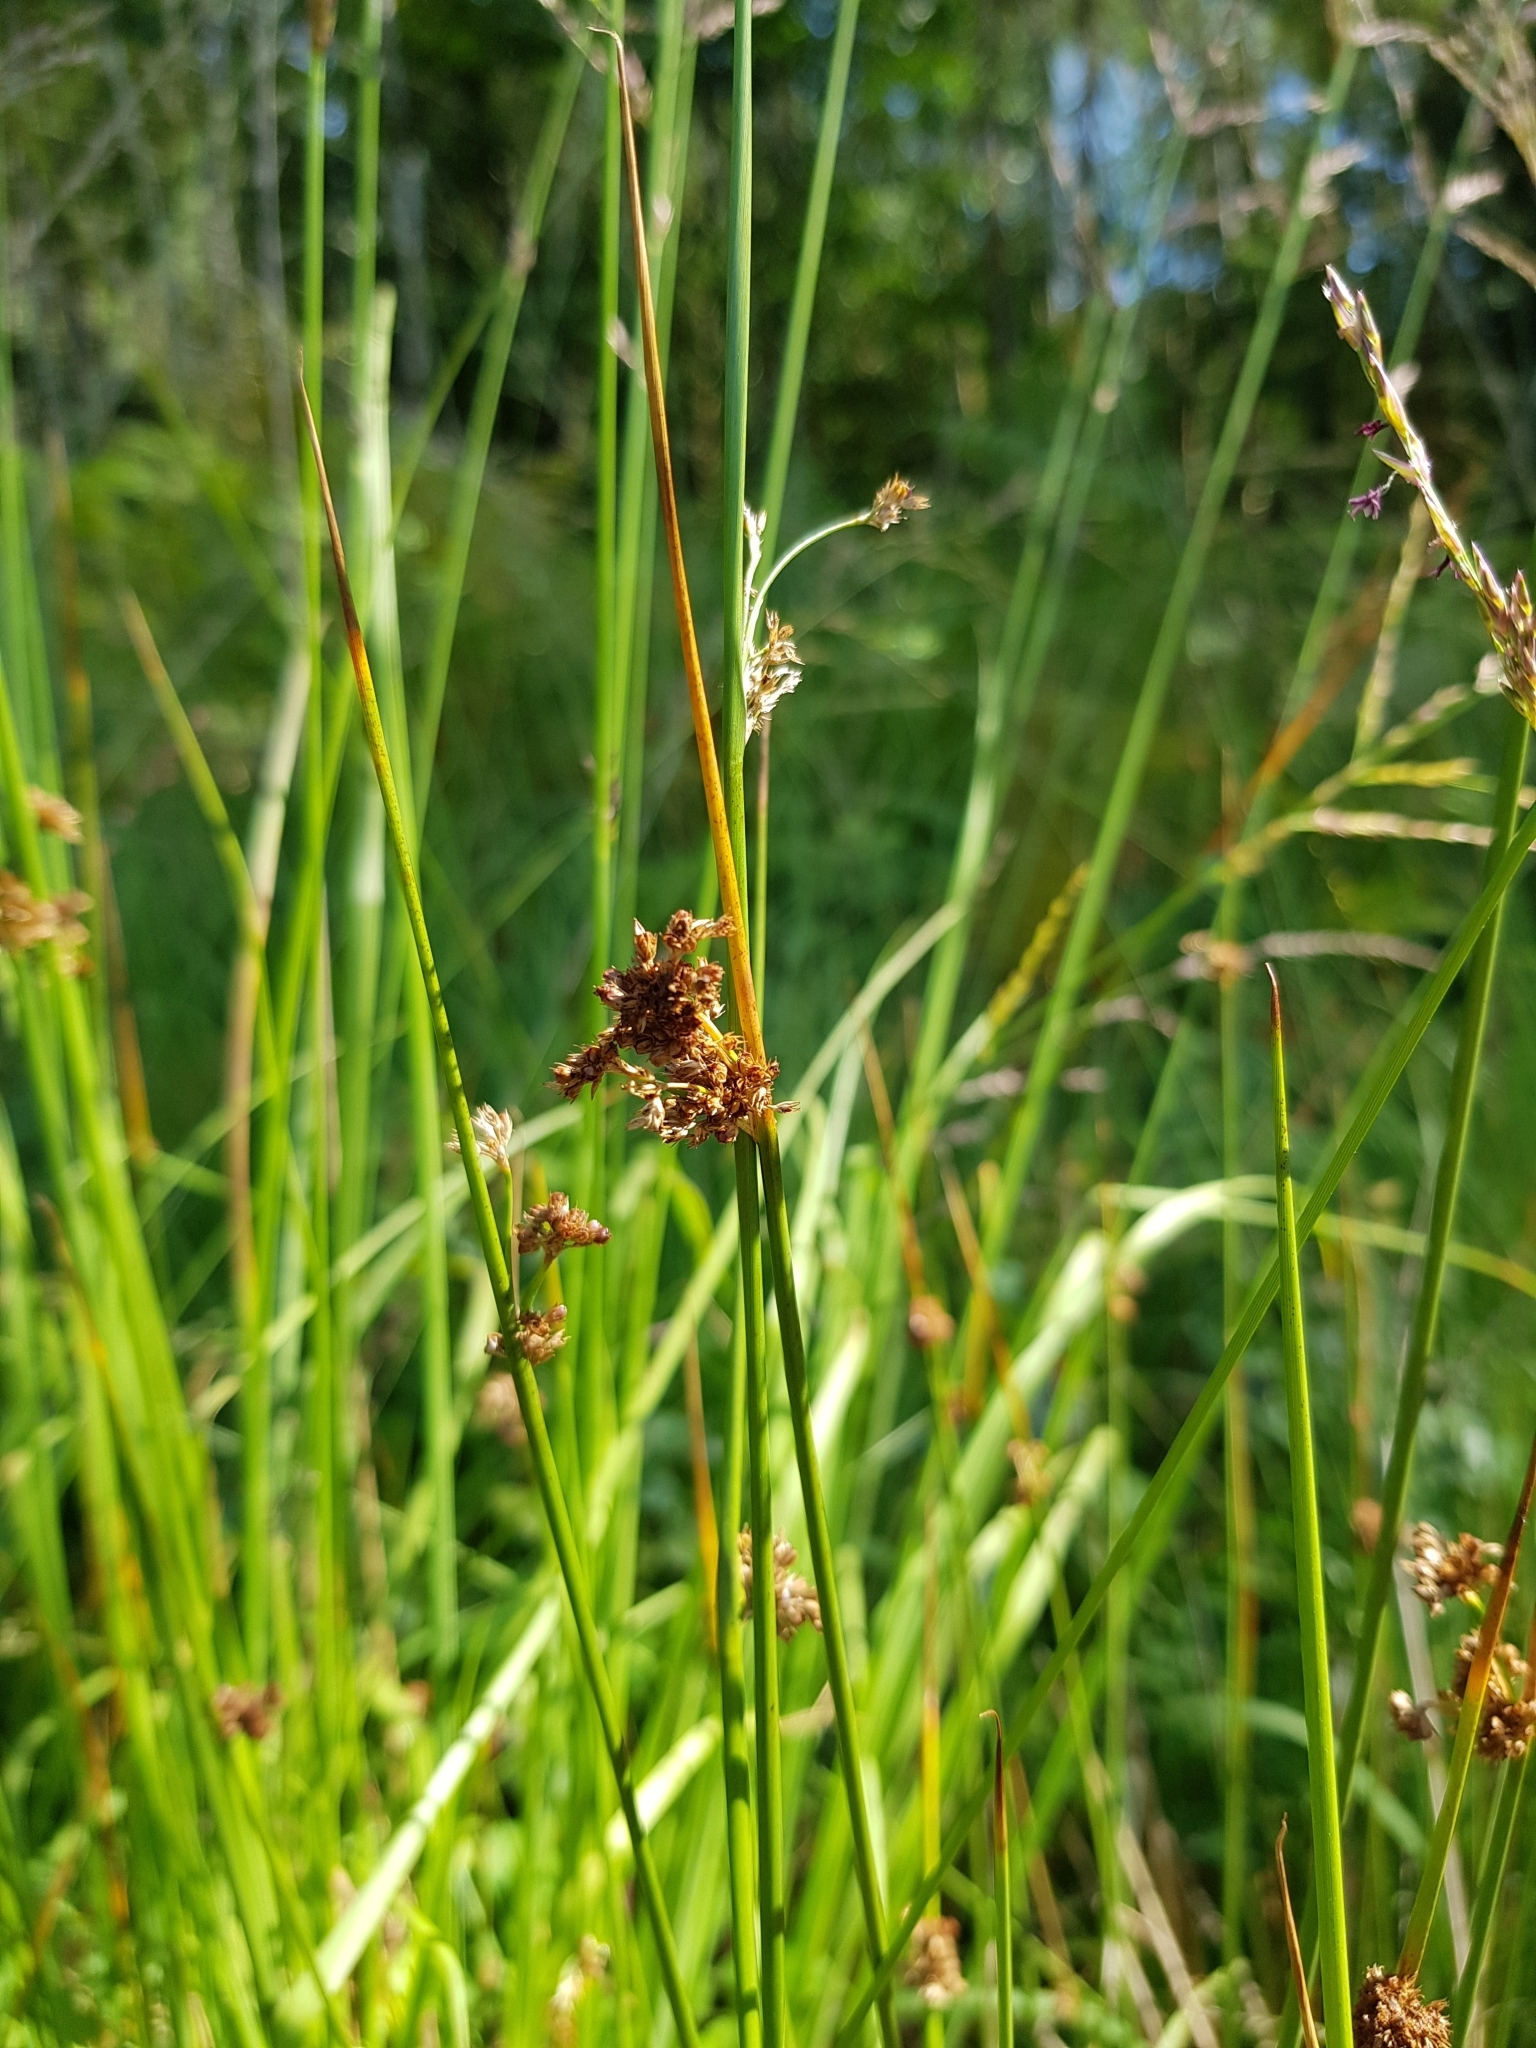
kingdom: Plantae
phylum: Tracheophyta
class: Liliopsida
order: Poales
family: Juncaceae
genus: Juncus
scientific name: Juncus effusus
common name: Soft rush
